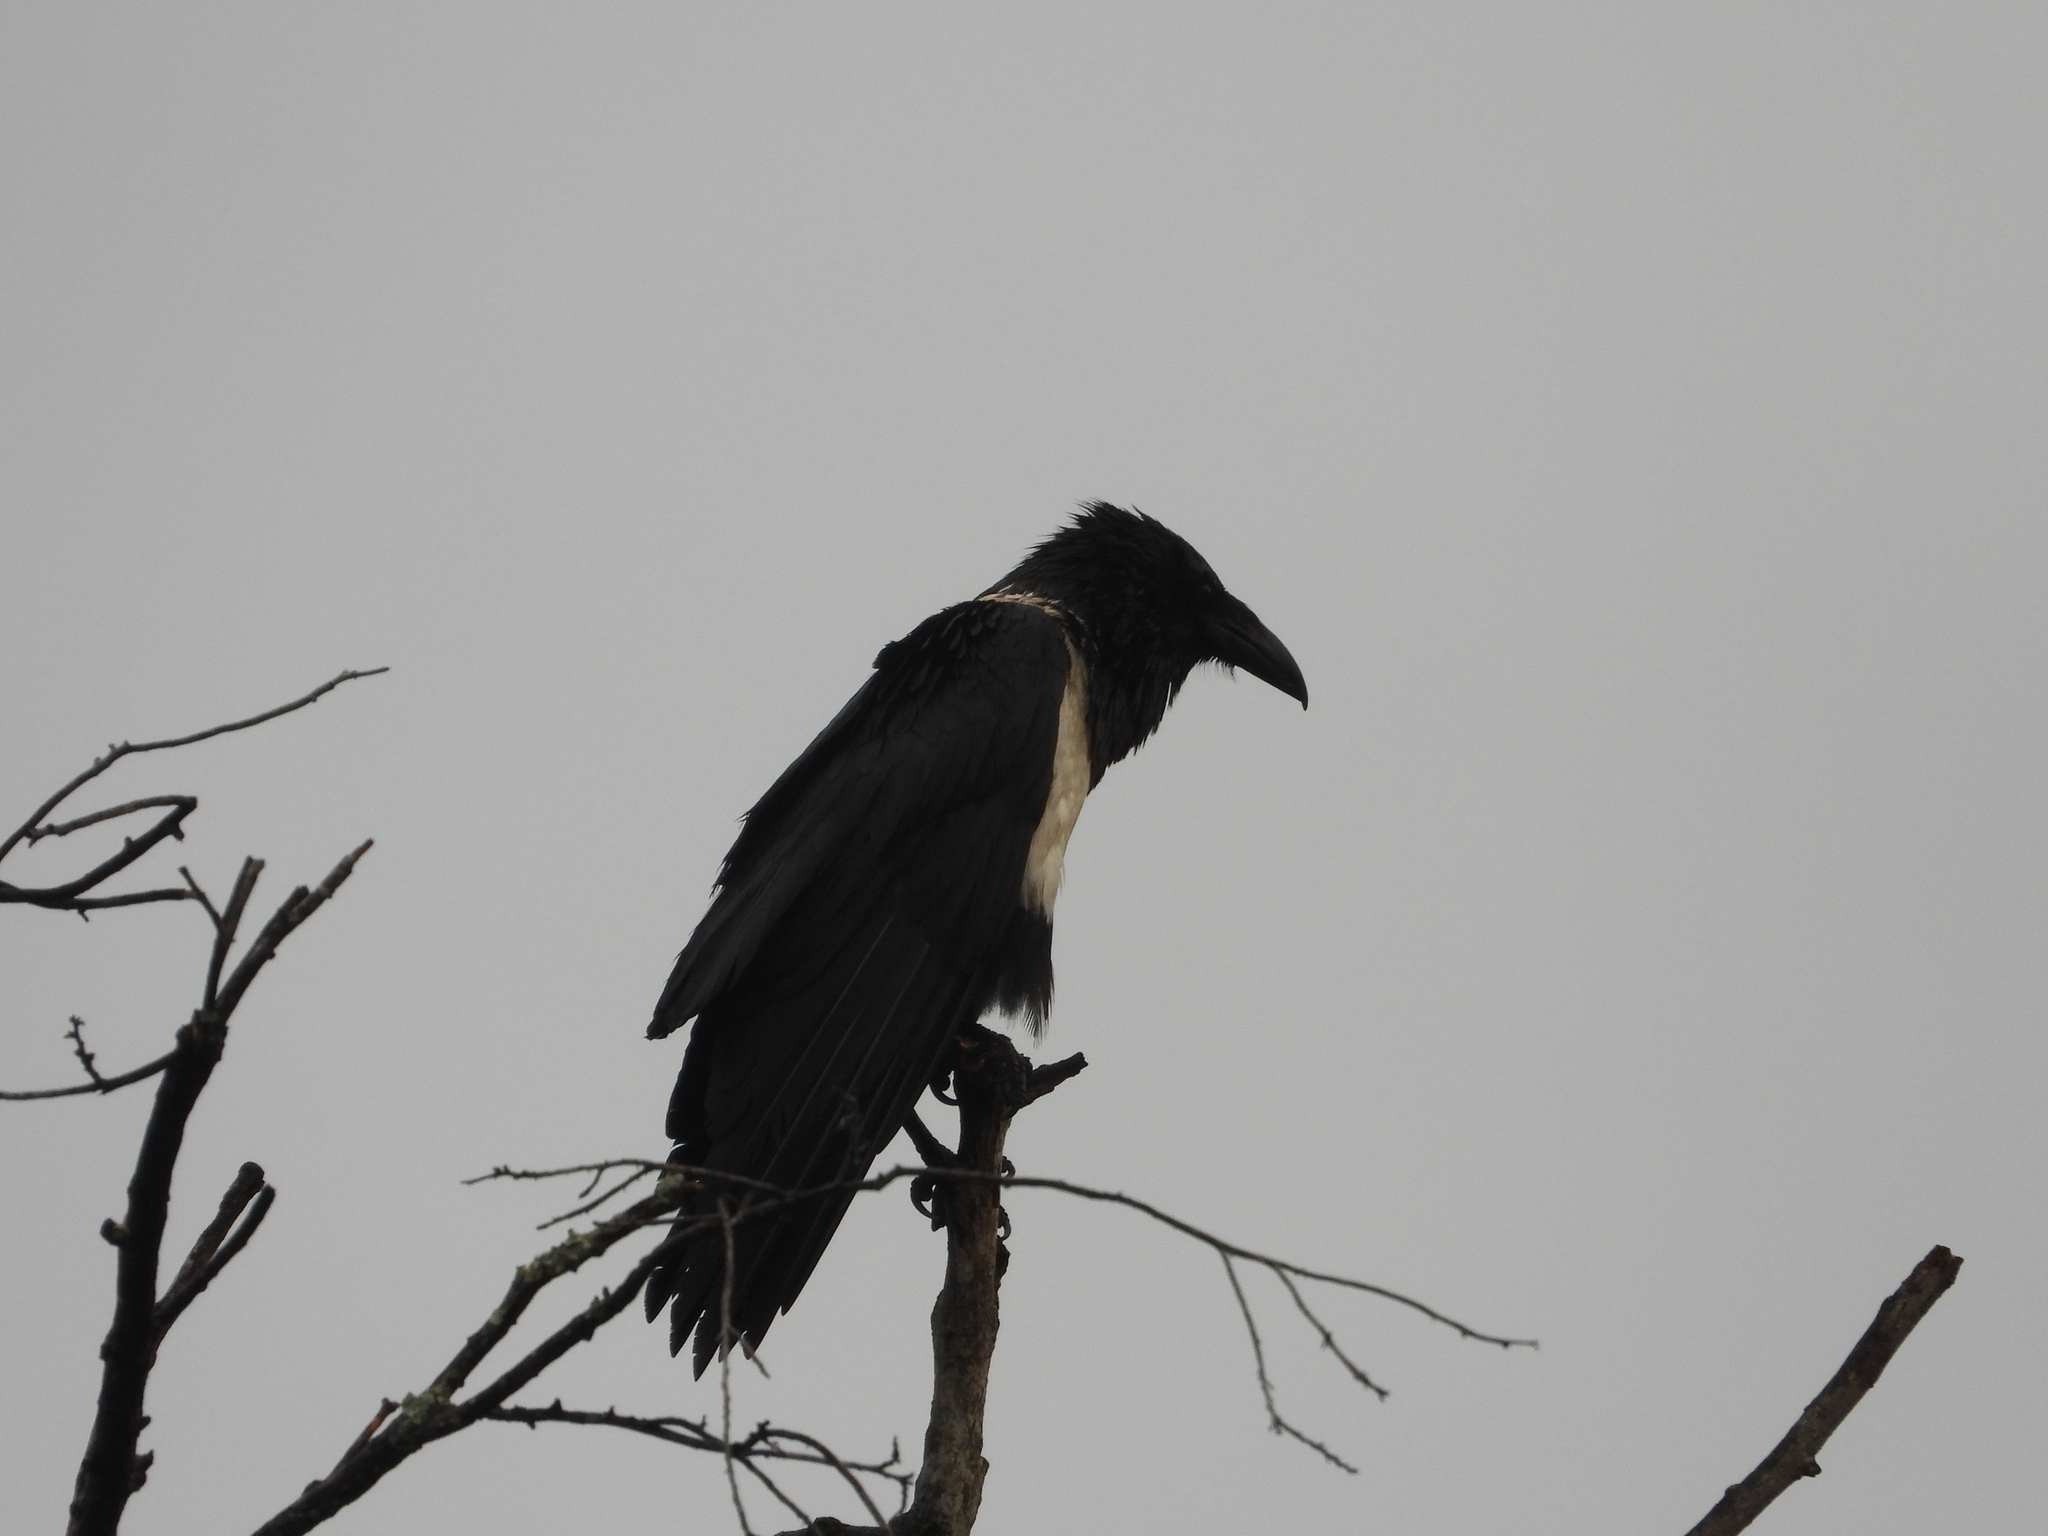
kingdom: Animalia
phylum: Chordata
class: Aves
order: Passeriformes
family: Corvidae
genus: Corvus
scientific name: Corvus albus
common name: Pied crow
